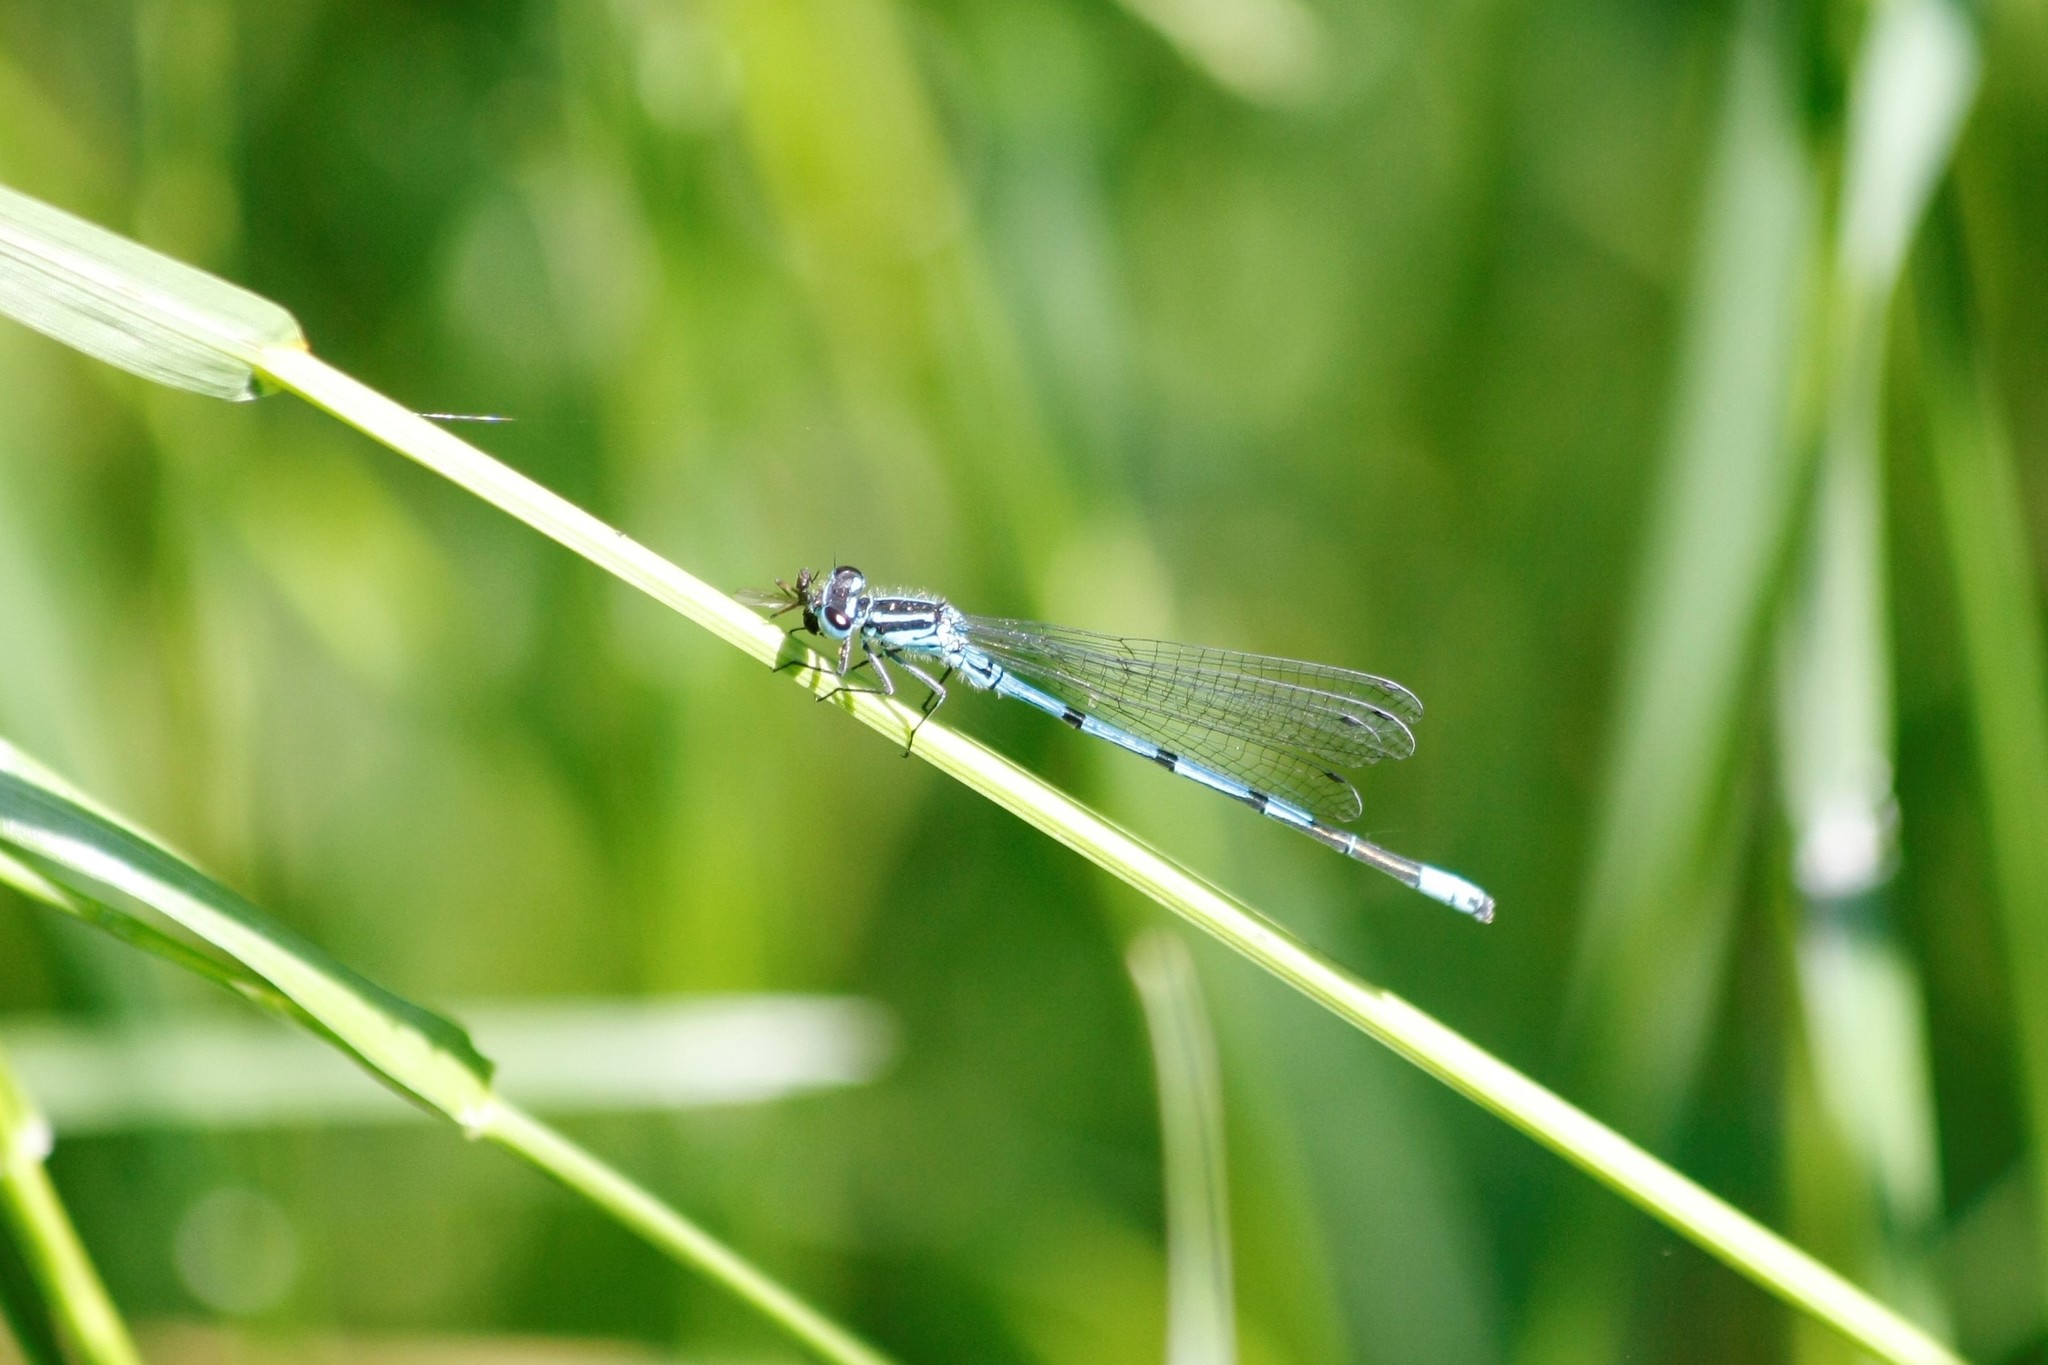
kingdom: Animalia
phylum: Arthropoda
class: Insecta
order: Odonata
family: Coenagrionidae
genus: Coenagrion
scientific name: Coenagrion puella
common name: Azure damselfly
